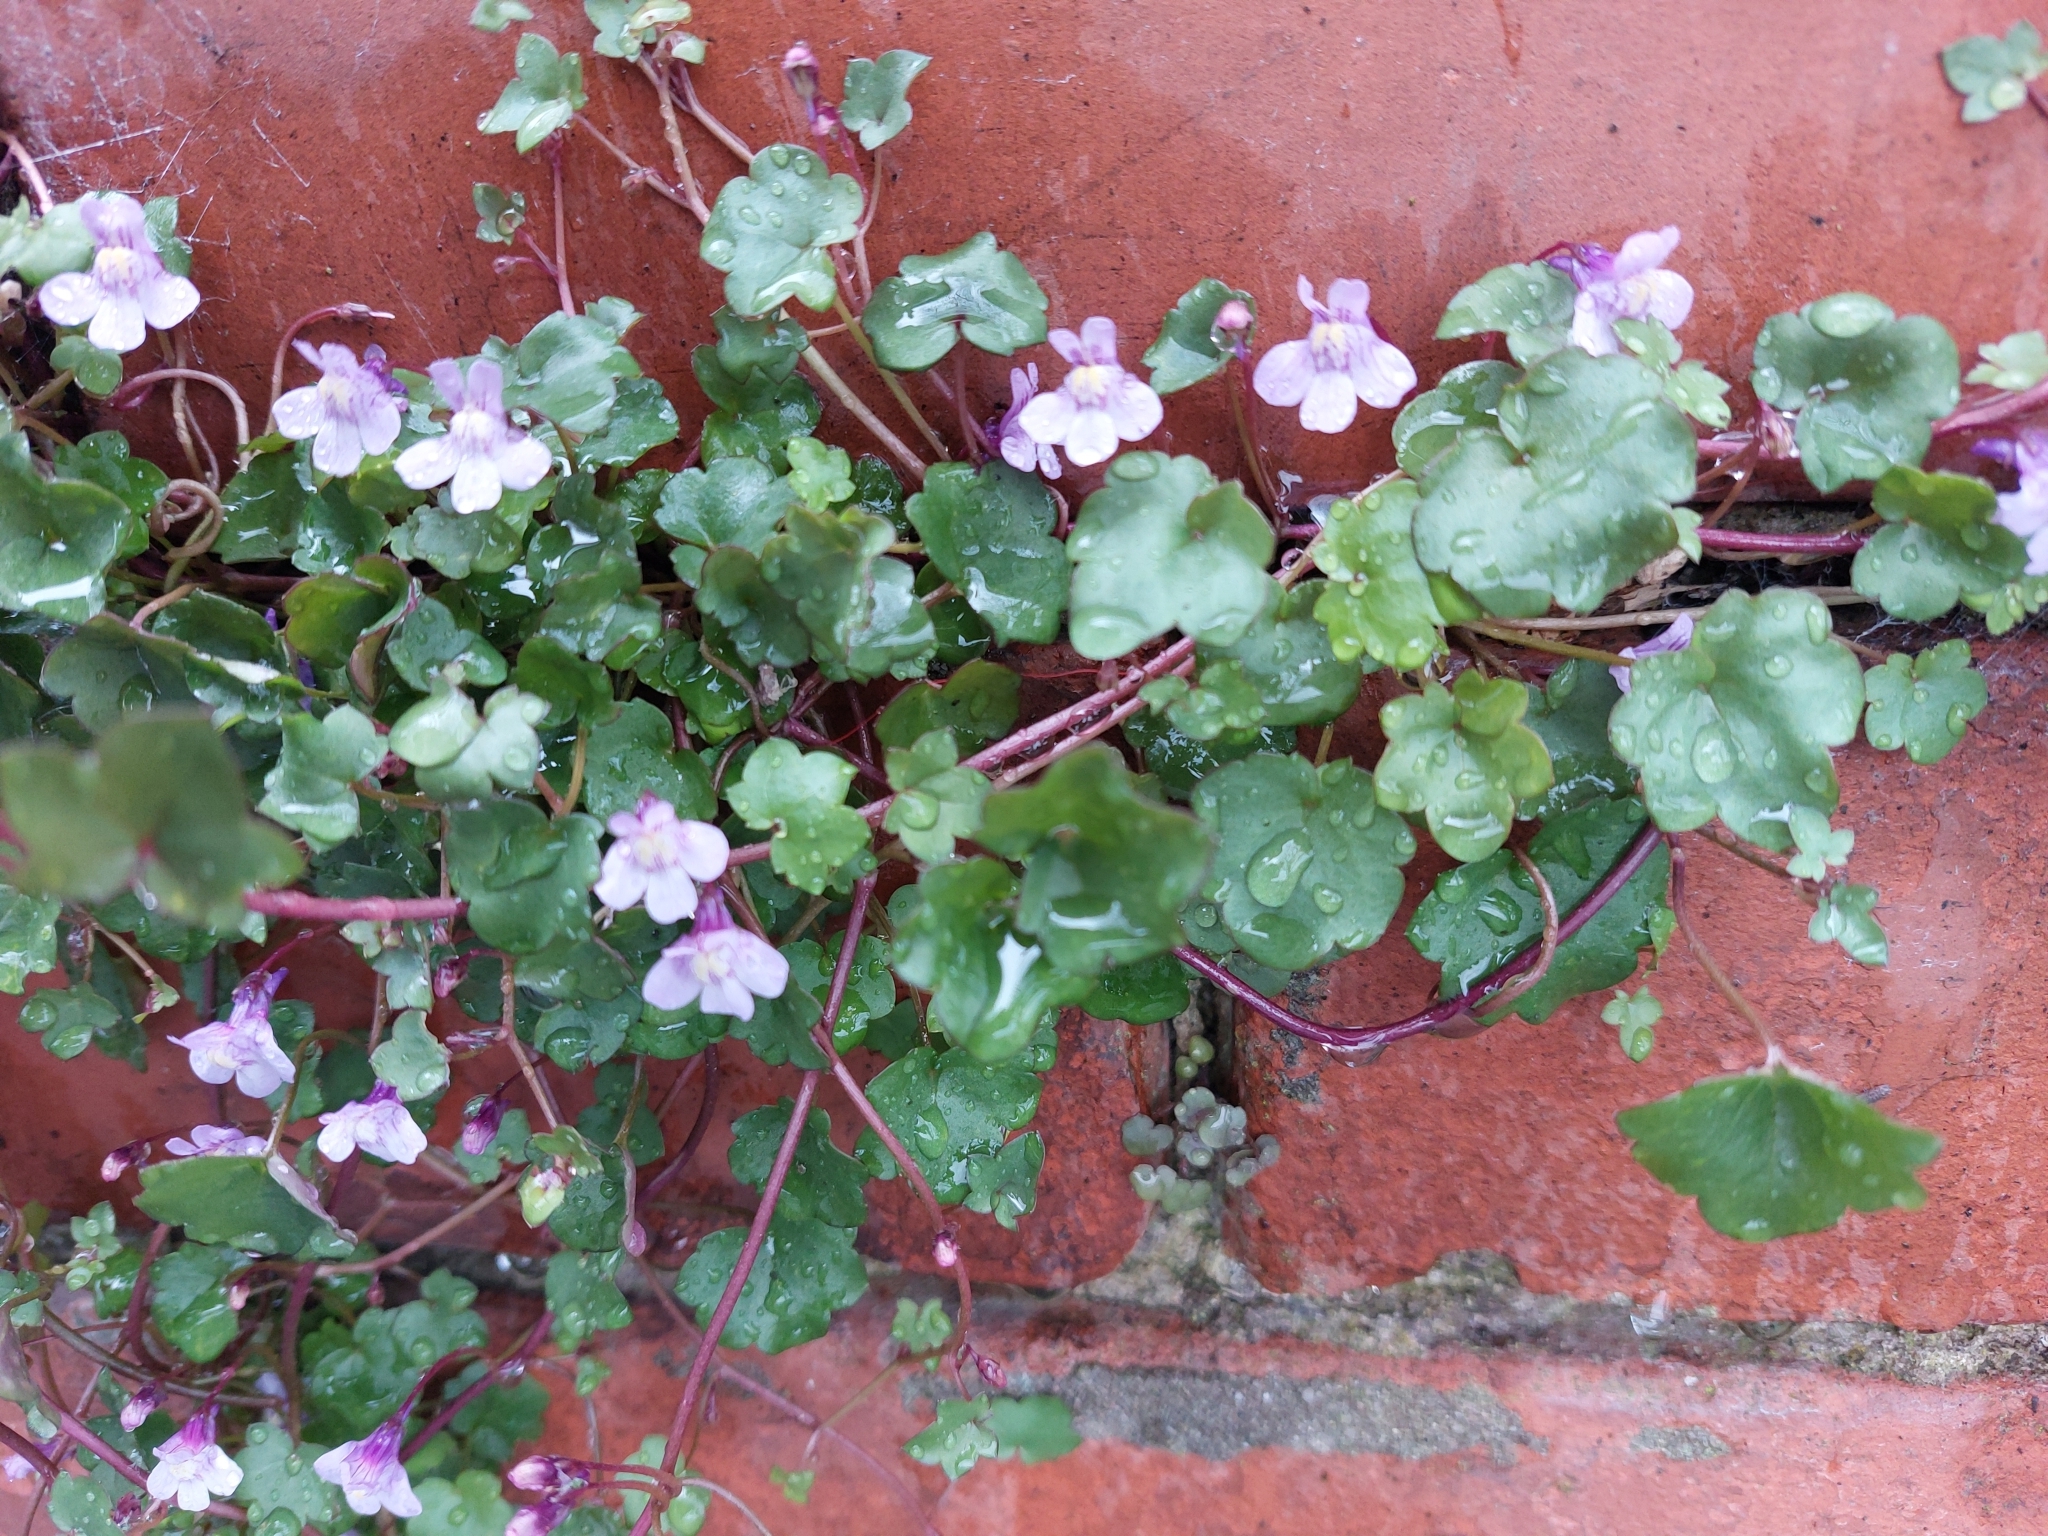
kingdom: Plantae
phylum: Tracheophyta
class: Magnoliopsida
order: Lamiales
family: Plantaginaceae
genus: Cymbalaria
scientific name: Cymbalaria muralis
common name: Ivy-leaved toadflax
